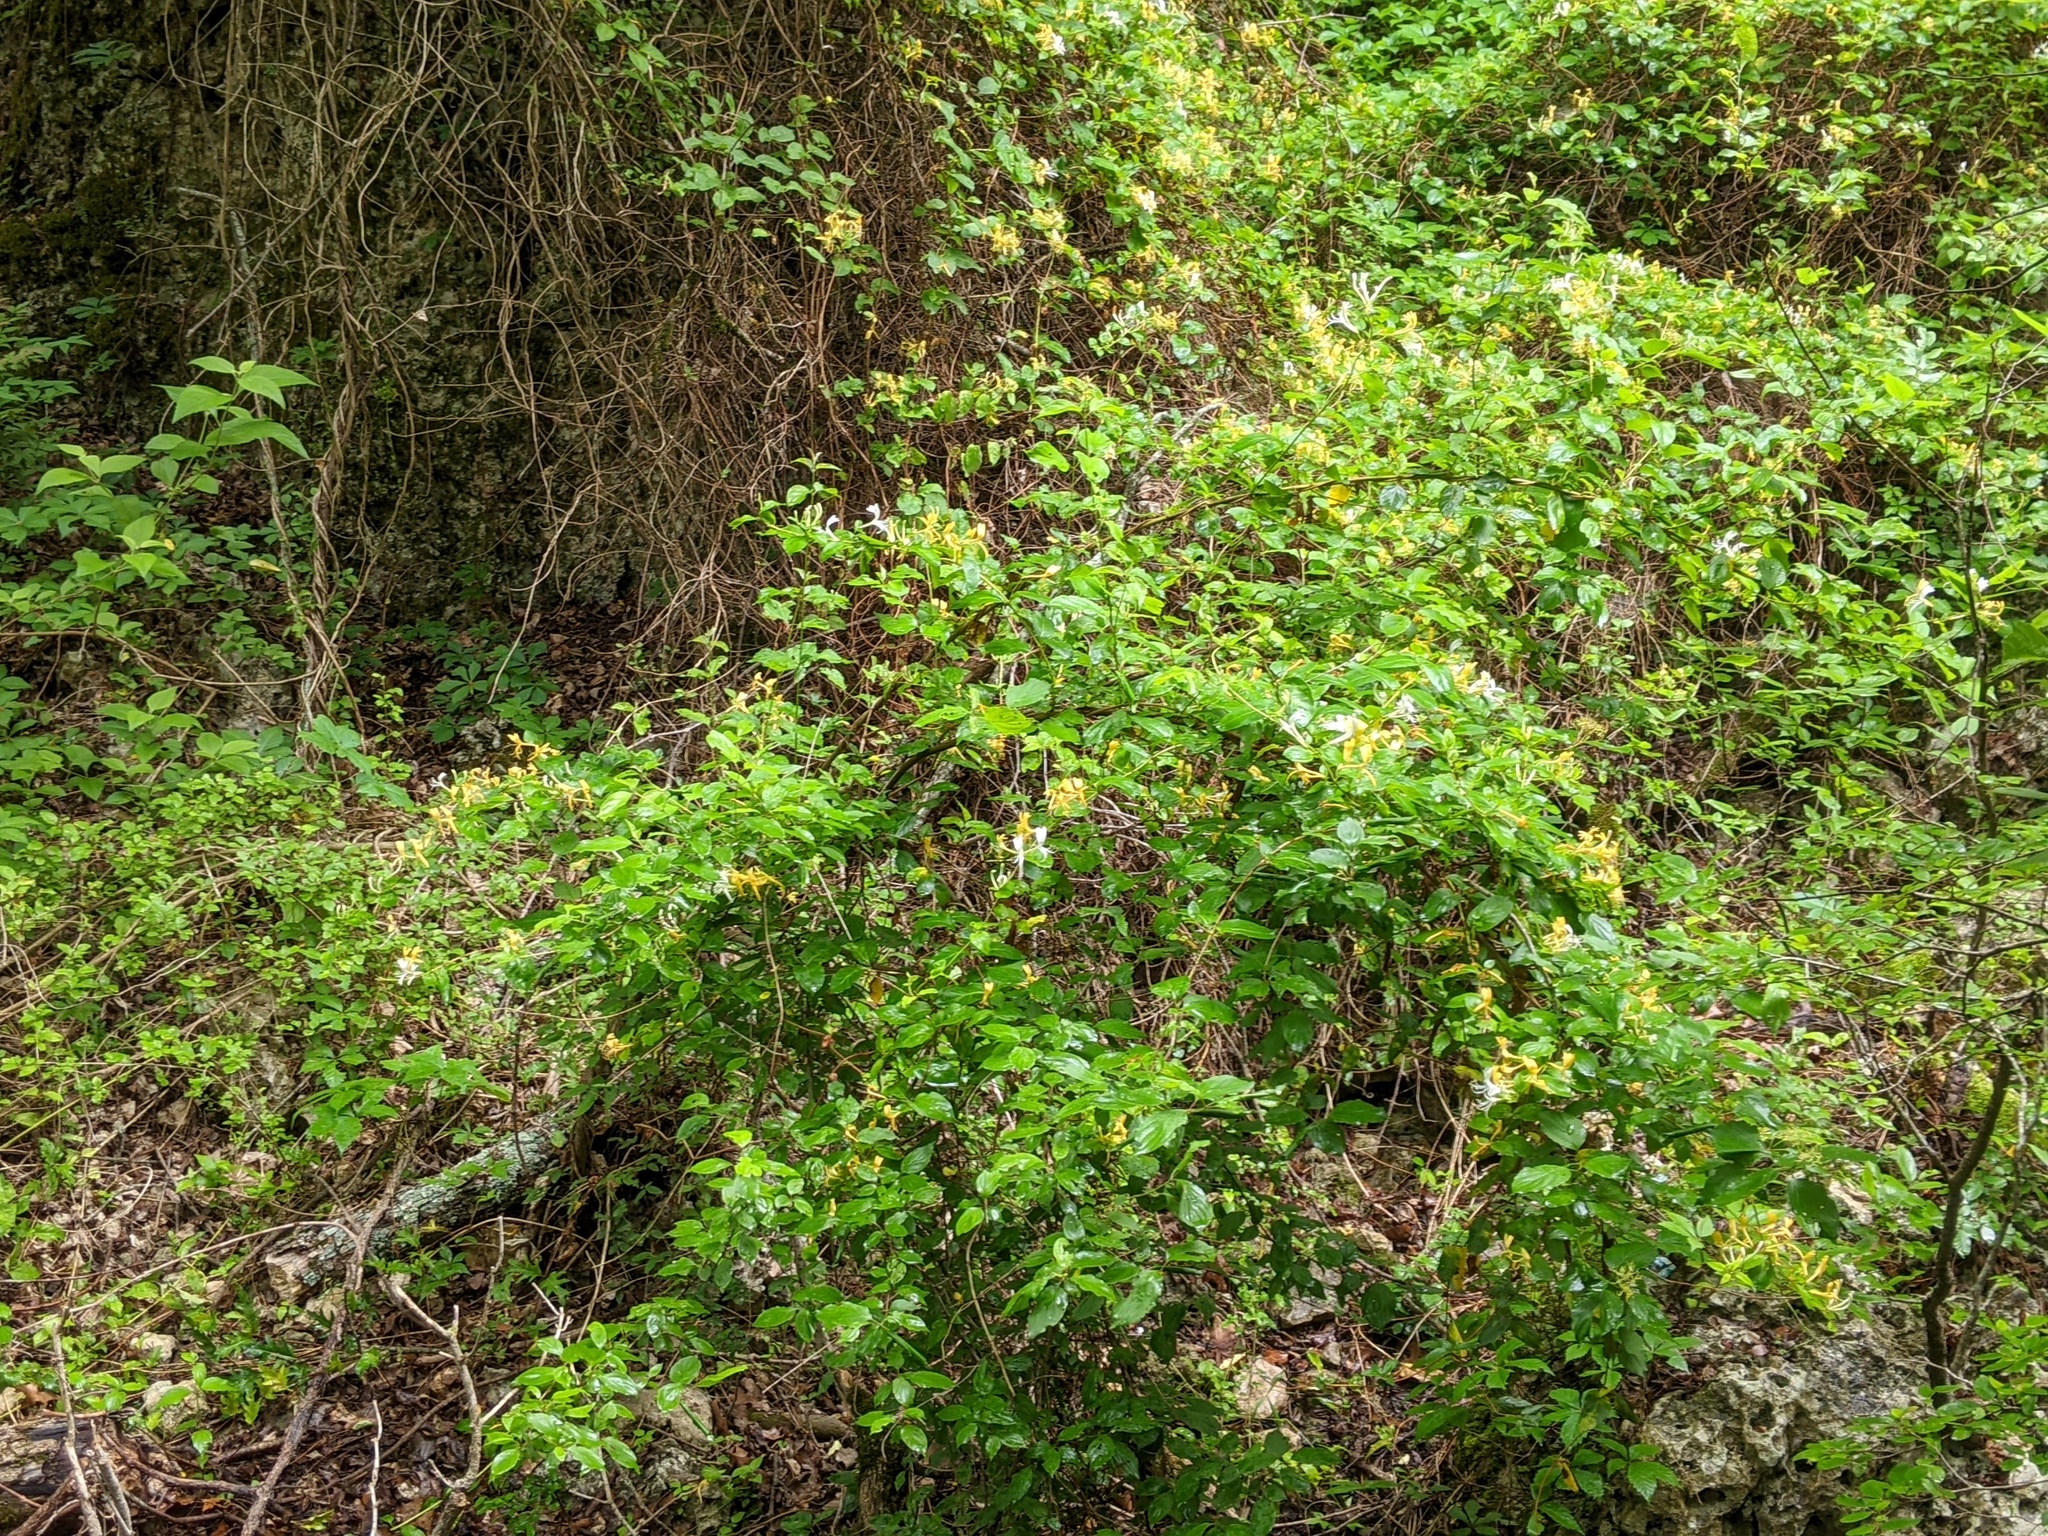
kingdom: Plantae
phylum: Tracheophyta
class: Magnoliopsida
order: Dipsacales
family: Caprifoliaceae
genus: Lonicera
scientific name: Lonicera japonica
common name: Japanese honeysuckle
